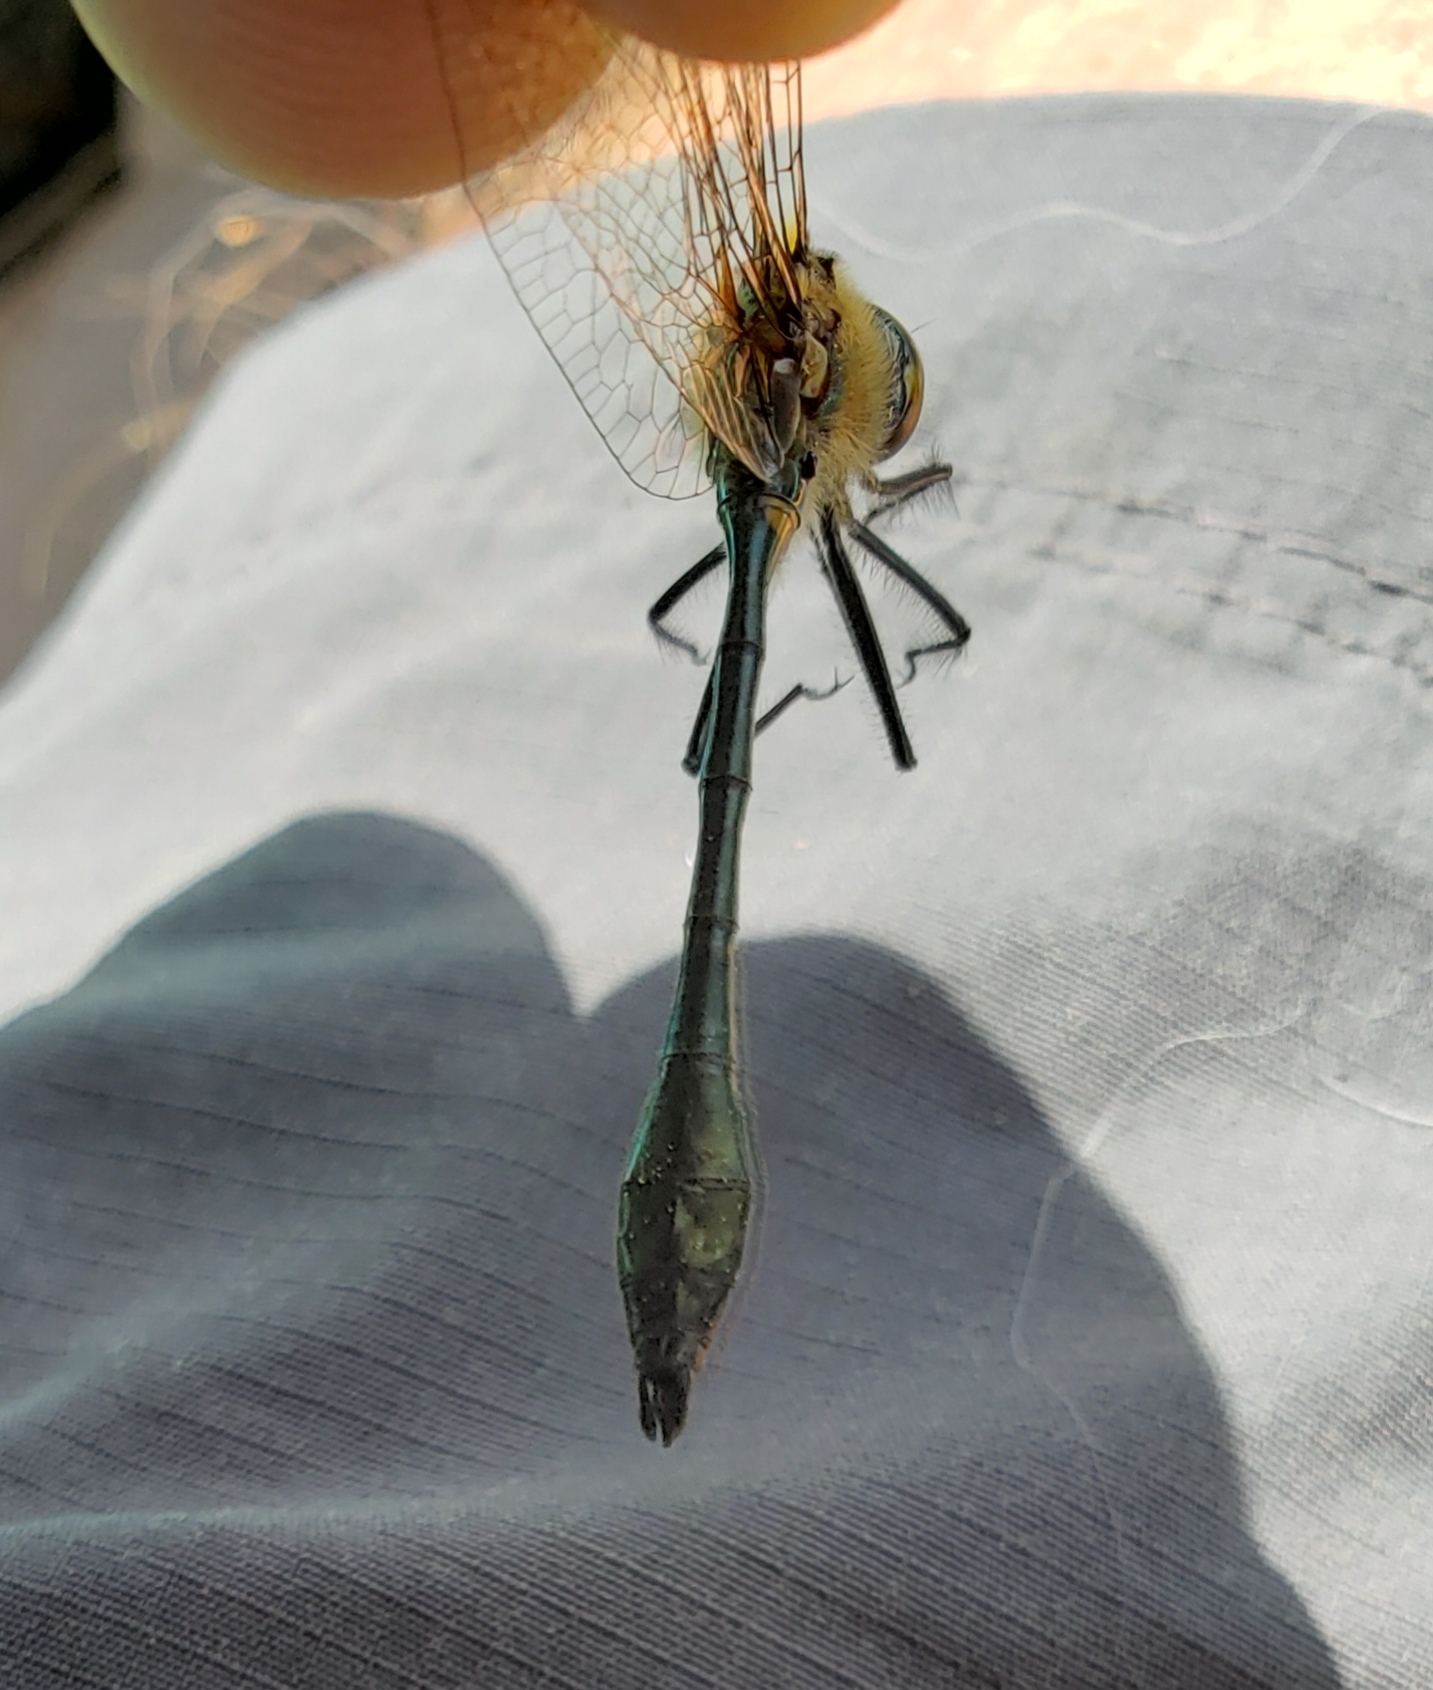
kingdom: Animalia
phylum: Arthropoda
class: Insecta
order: Odonata
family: Corduliidae
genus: Dorocordulia
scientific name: Dorocordulia libera
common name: Racket-tailed emerald
